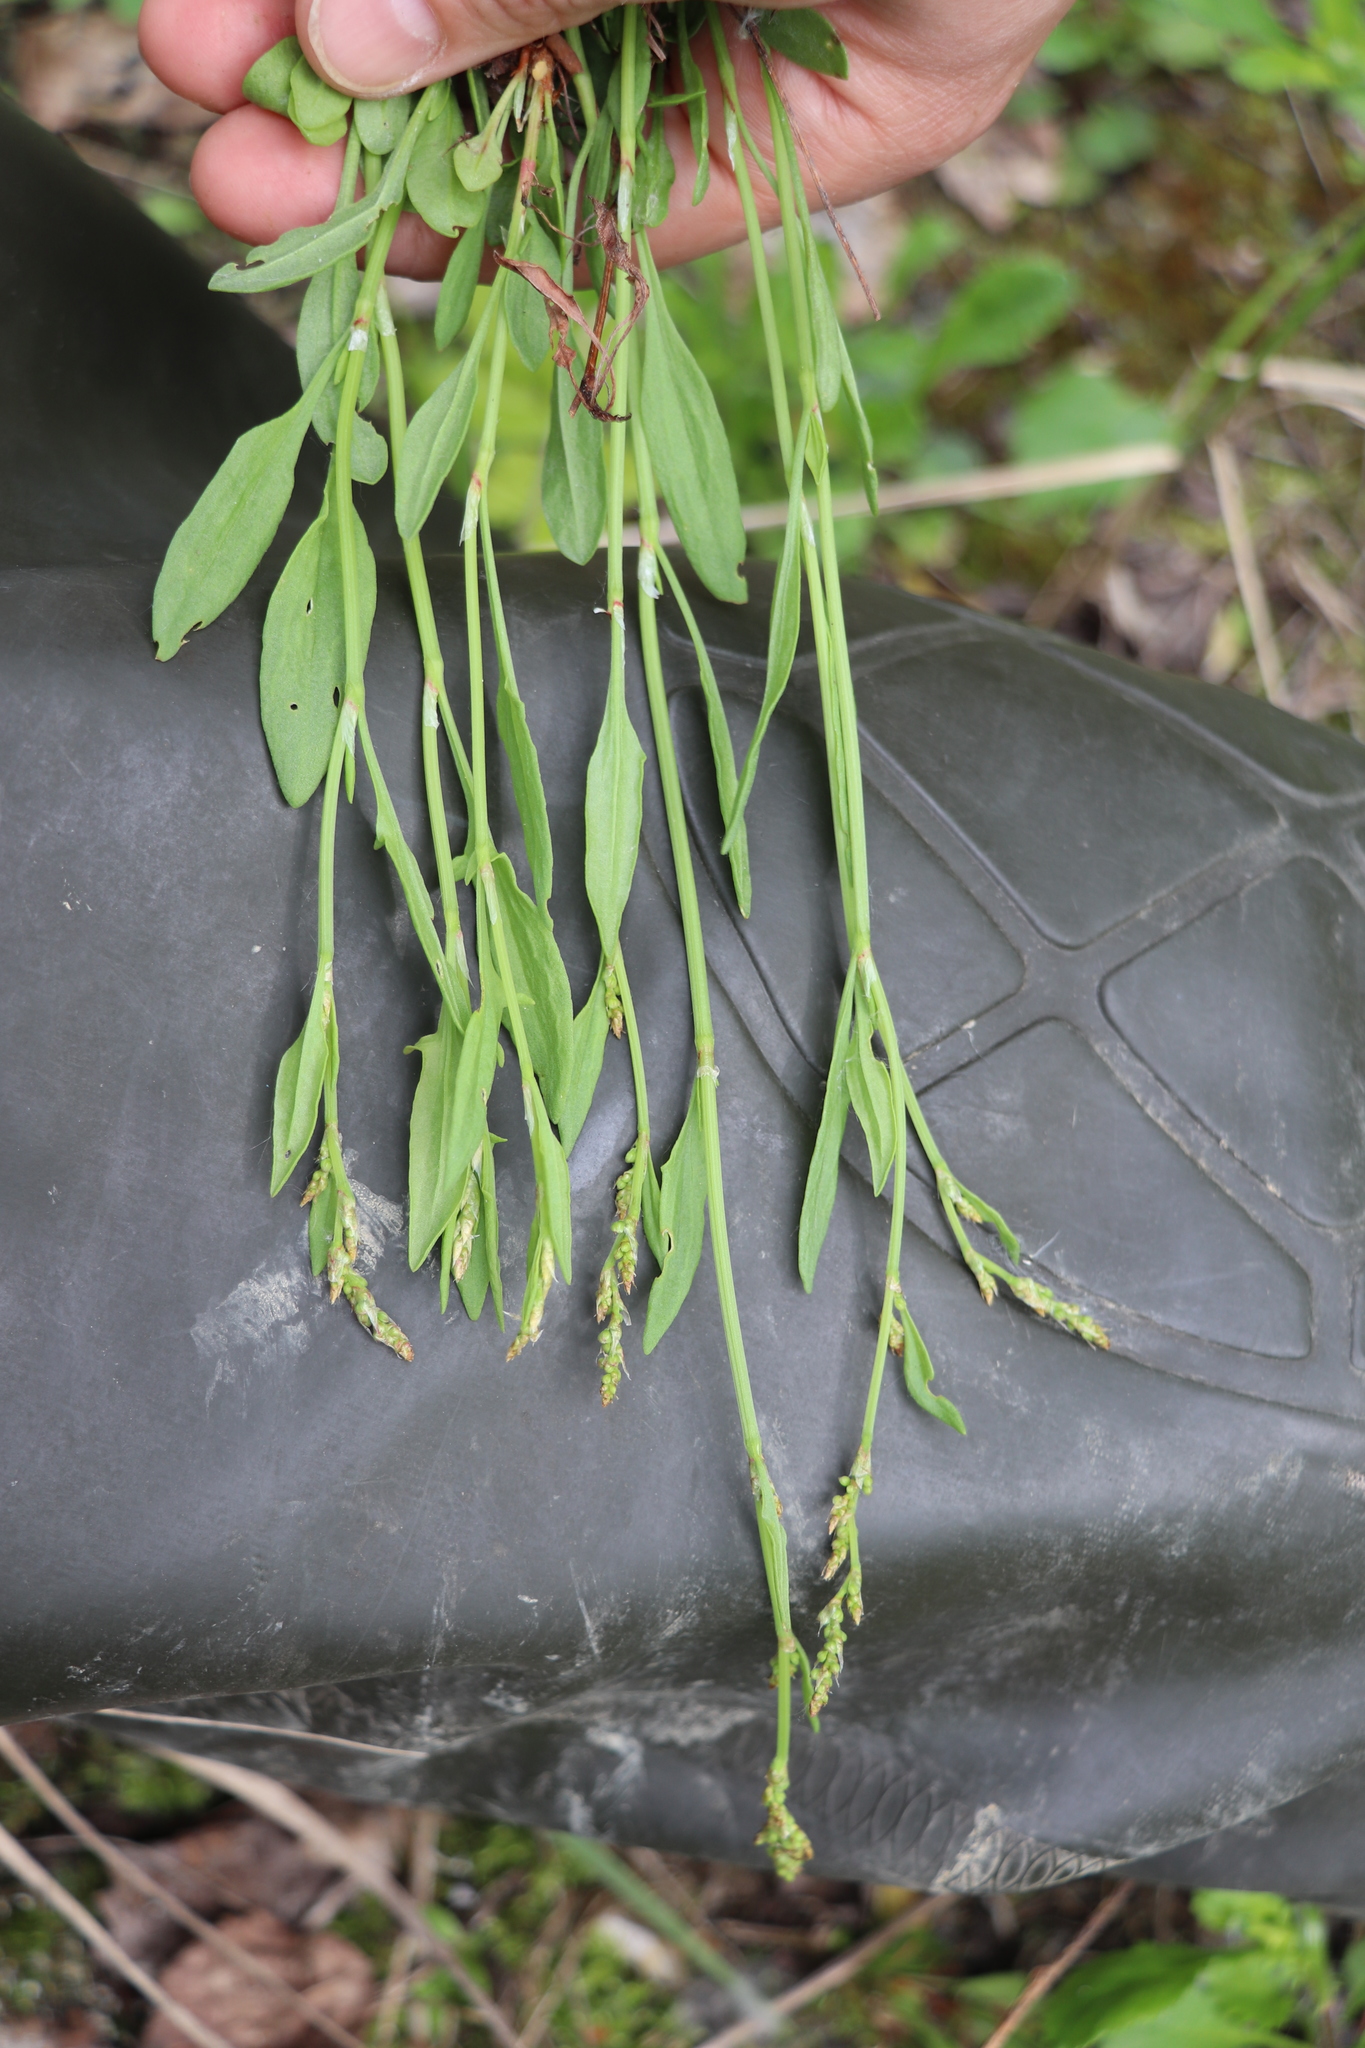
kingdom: Plantae
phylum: Tracheophyta
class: Magnoliopsida
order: Caryophyllales
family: Polygonaceae
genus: Rumex
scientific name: Rumex acetosella
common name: Common sheep sorrel
